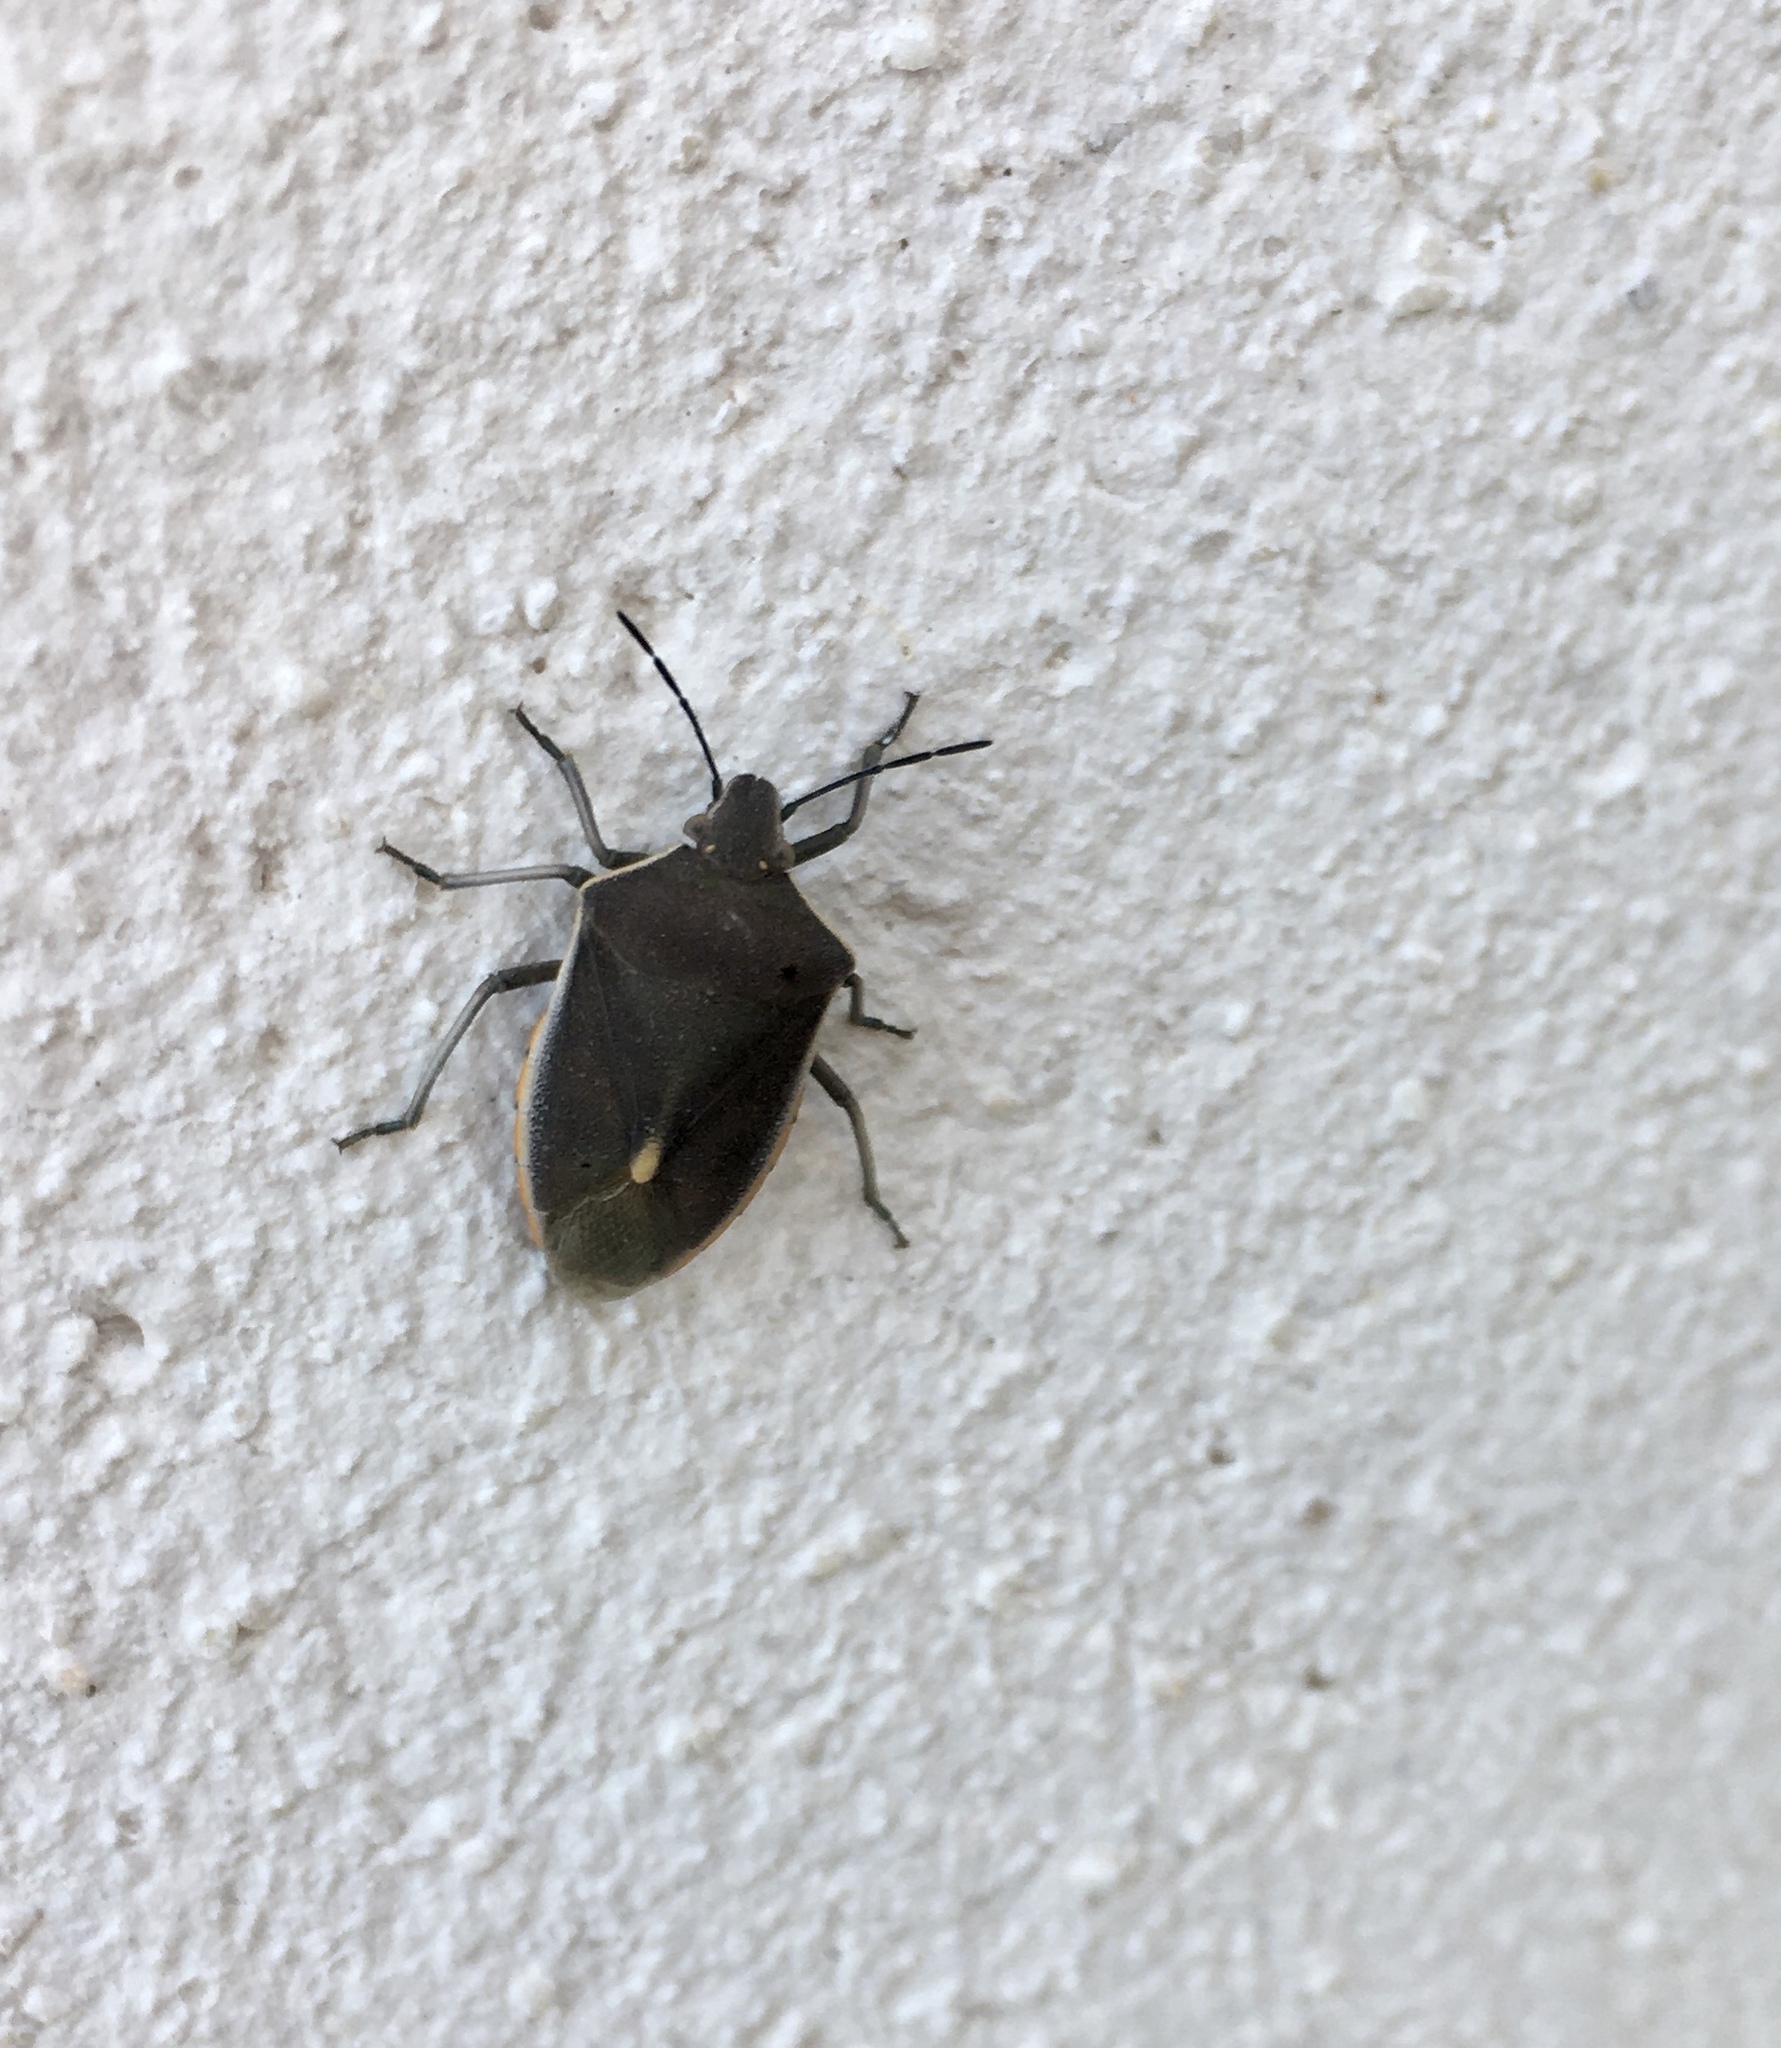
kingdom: Animalia
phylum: Arthropoda
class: Insecta
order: Hemiptera
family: Pentatomidae
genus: Brachynema
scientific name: Brachynema germarii
